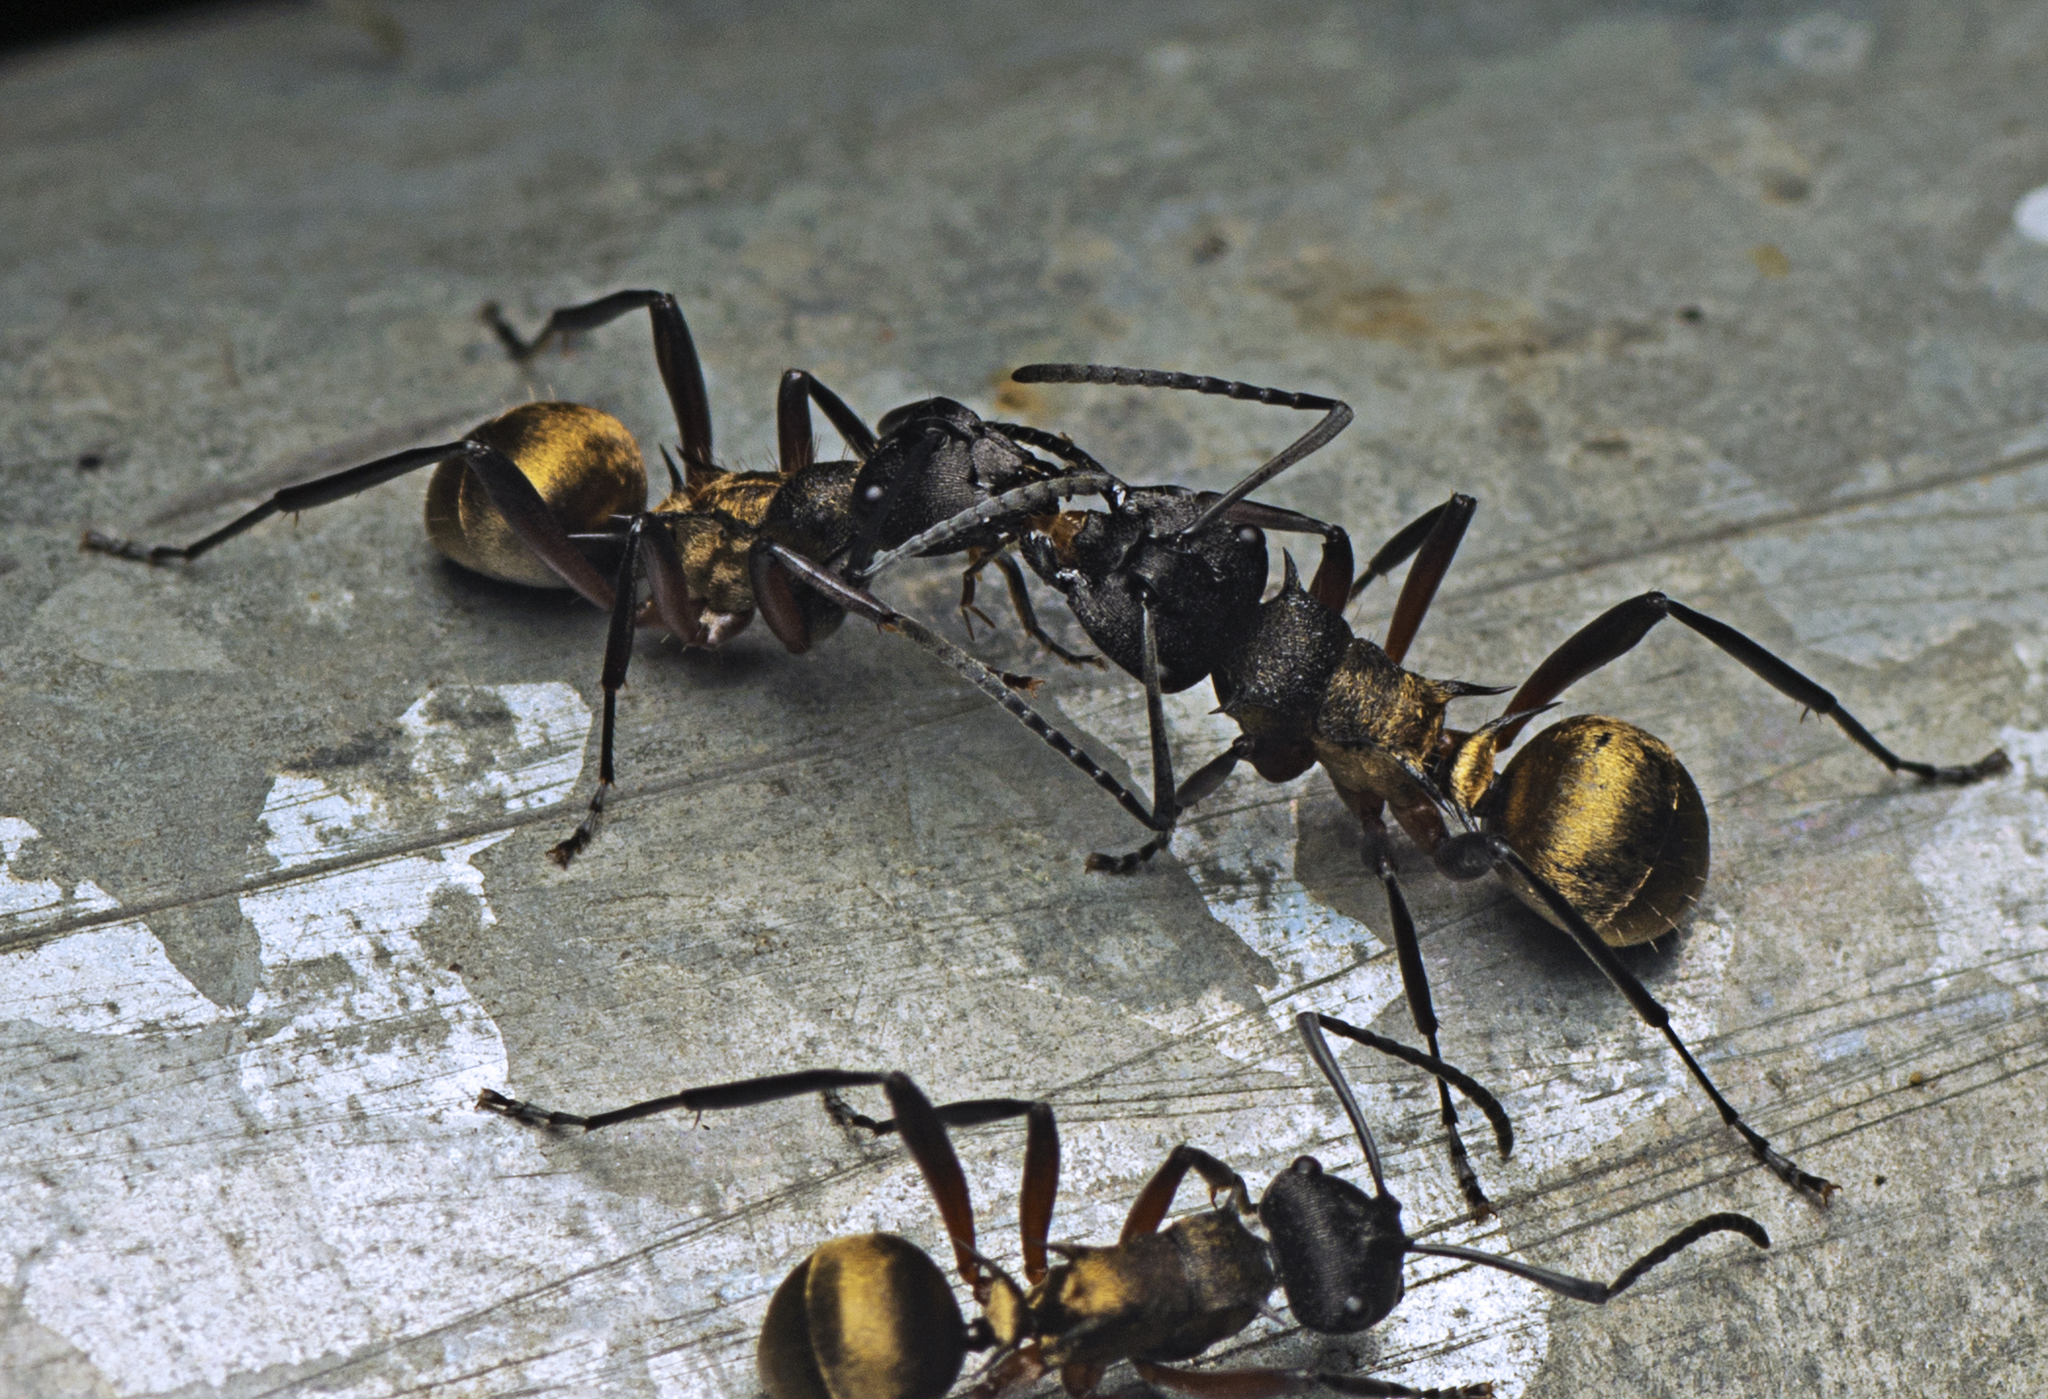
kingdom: Animalia
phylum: Arthropoda
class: Insecta
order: Hymenoptera
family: Formicidae
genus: Polyrhachis
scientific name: Polyrhachis rufifemur
